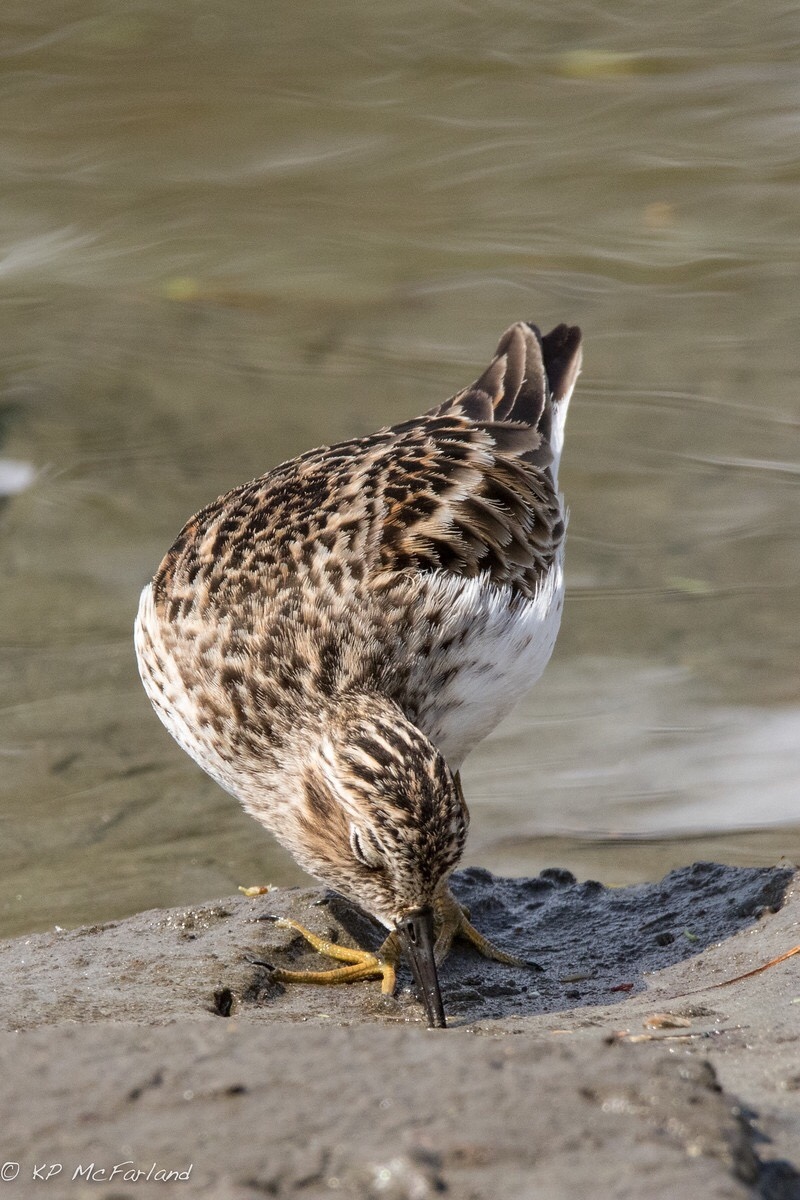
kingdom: Animalia
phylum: Chordata
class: Aves
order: Charadriiformes
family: Scolopacidae
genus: Calidris
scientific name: Calidris minutilla
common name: Least sandpiper
